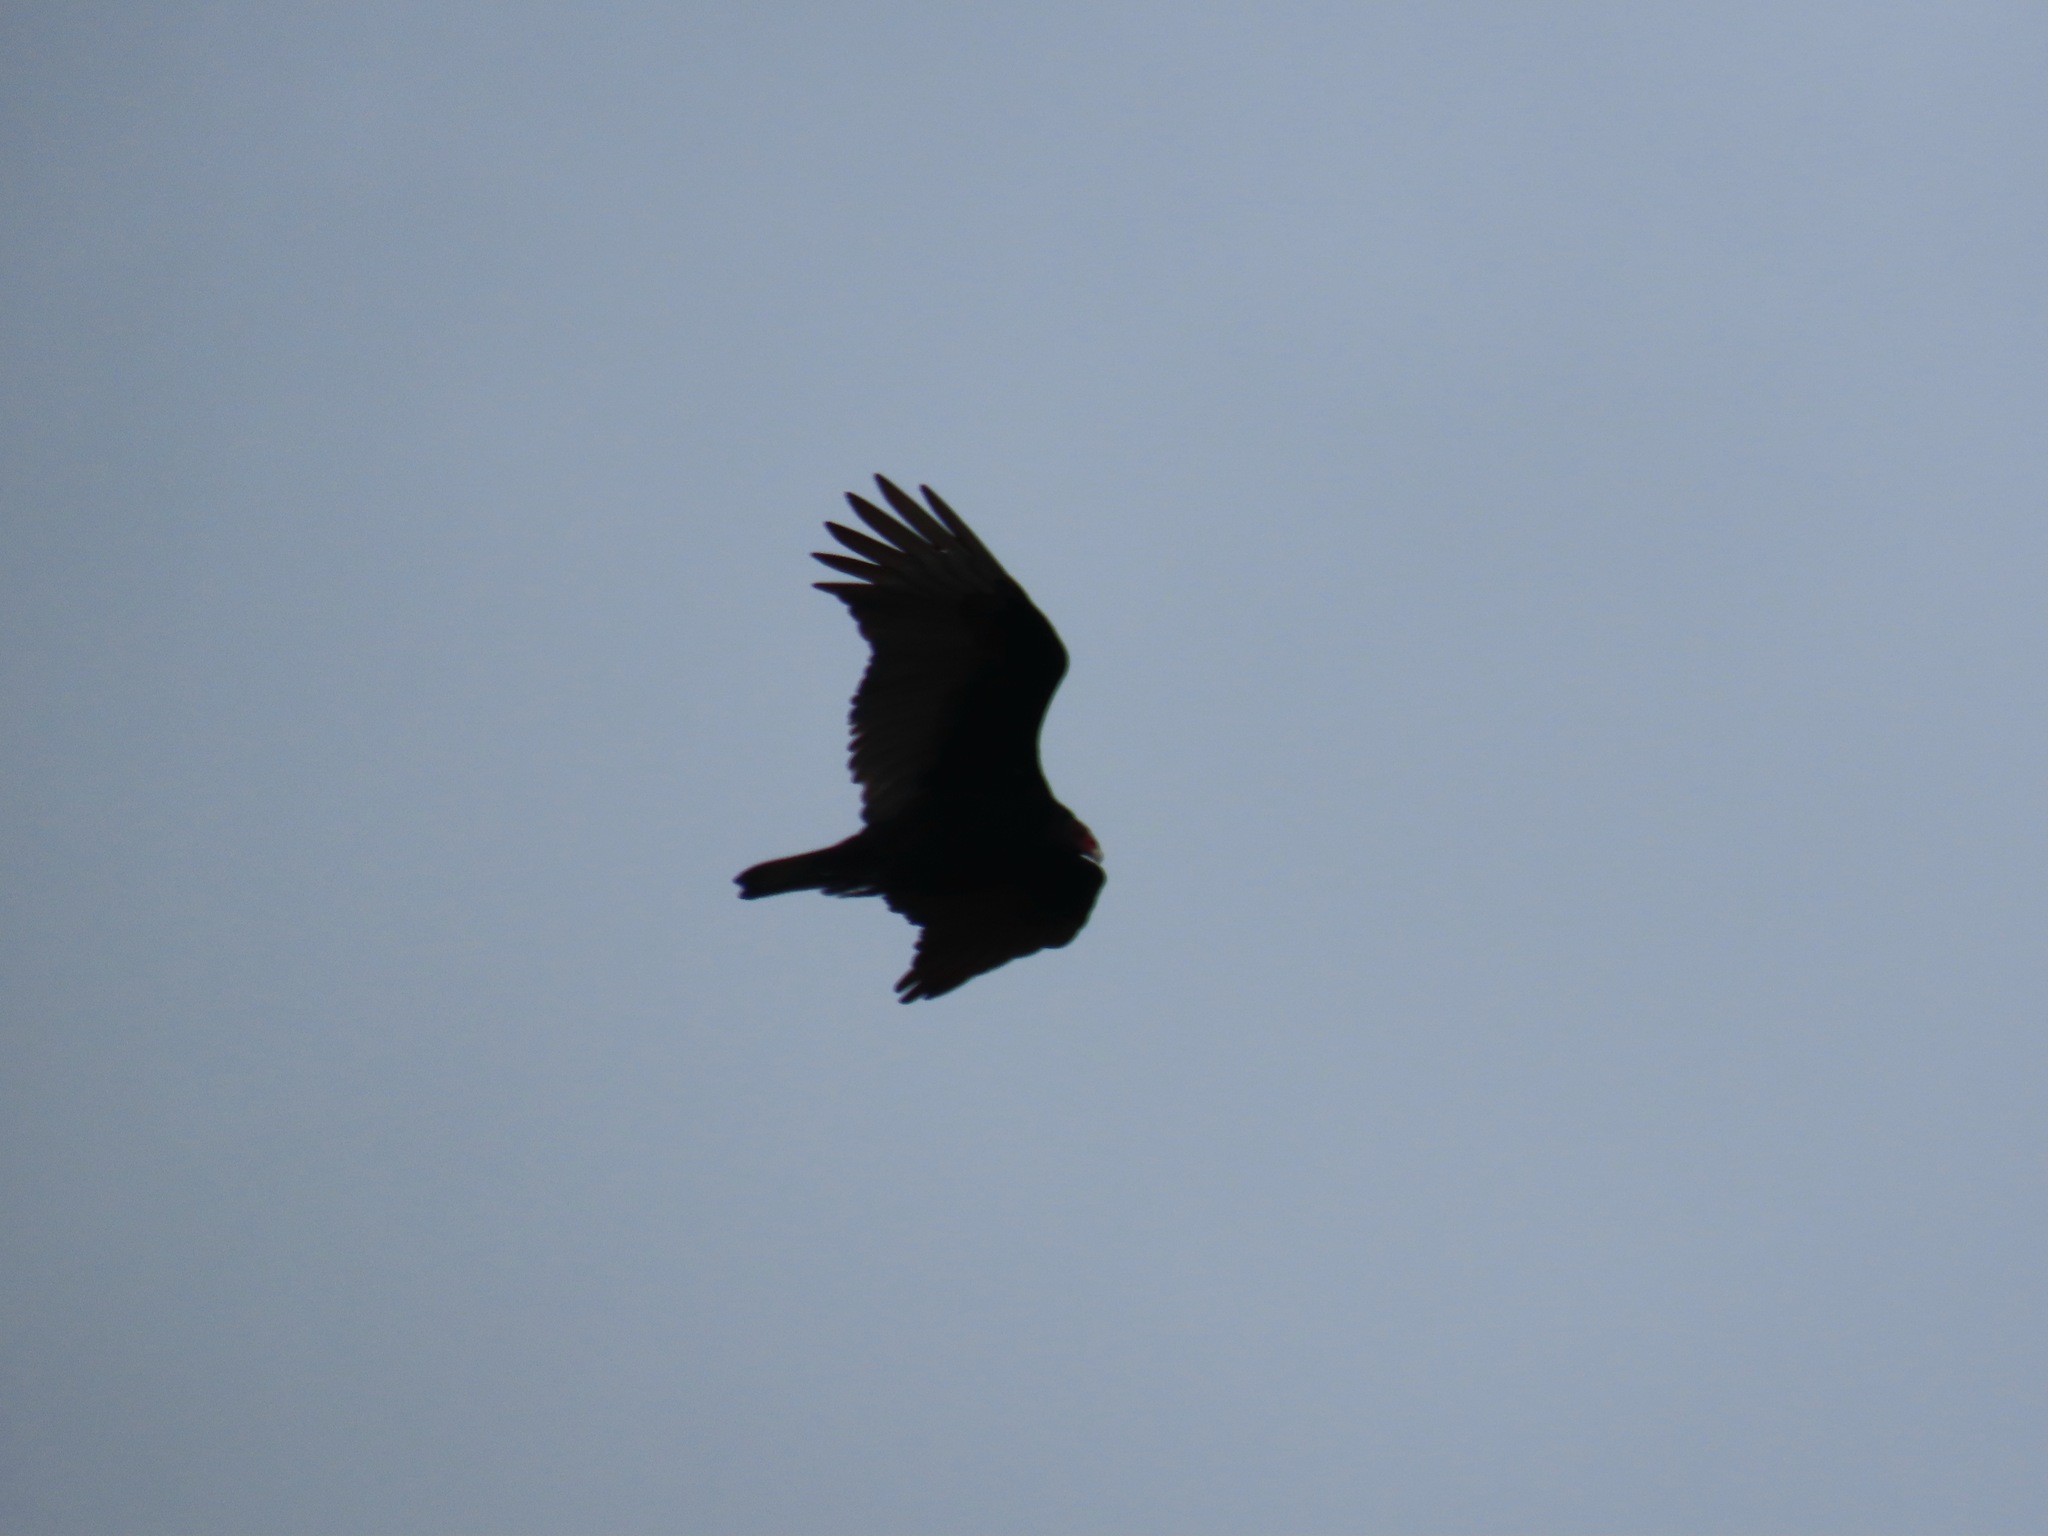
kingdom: Animalia
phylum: Chordata
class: Aves
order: Accipitriformes
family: Cathartidae
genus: Cathartes
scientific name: Cathartes aura
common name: Turkey vulture
